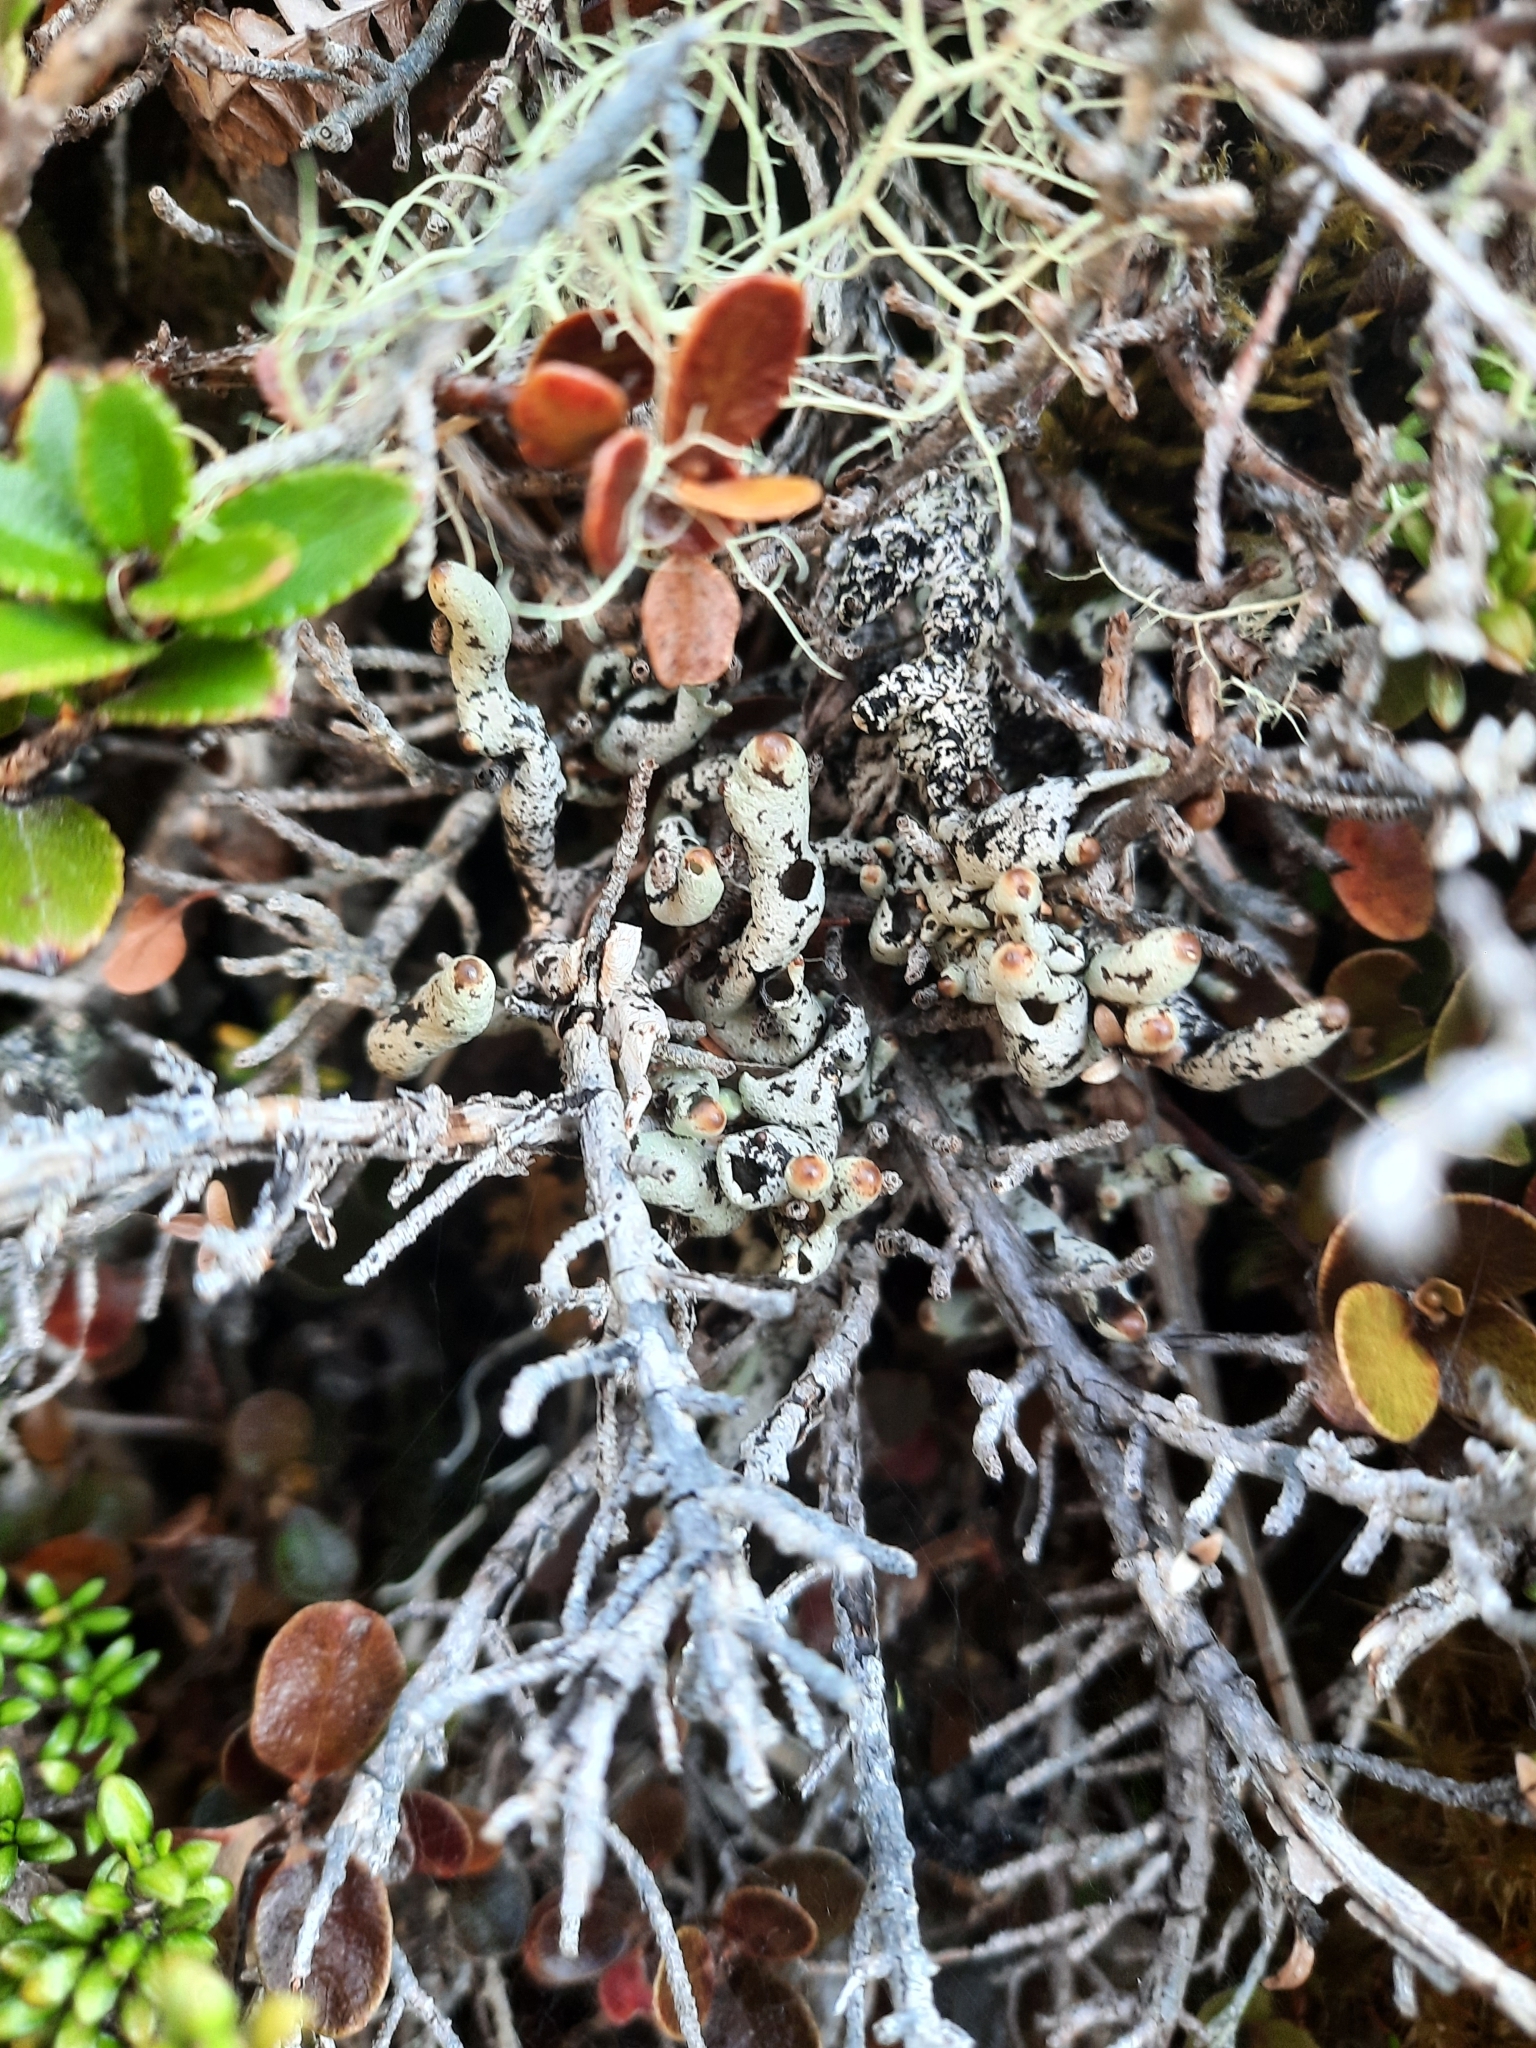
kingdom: Fungi
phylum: Ascomycota
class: Lecanoromycetes
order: Lecanorales
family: Parmeliaceae
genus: Menegazzia
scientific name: Menegazzia
